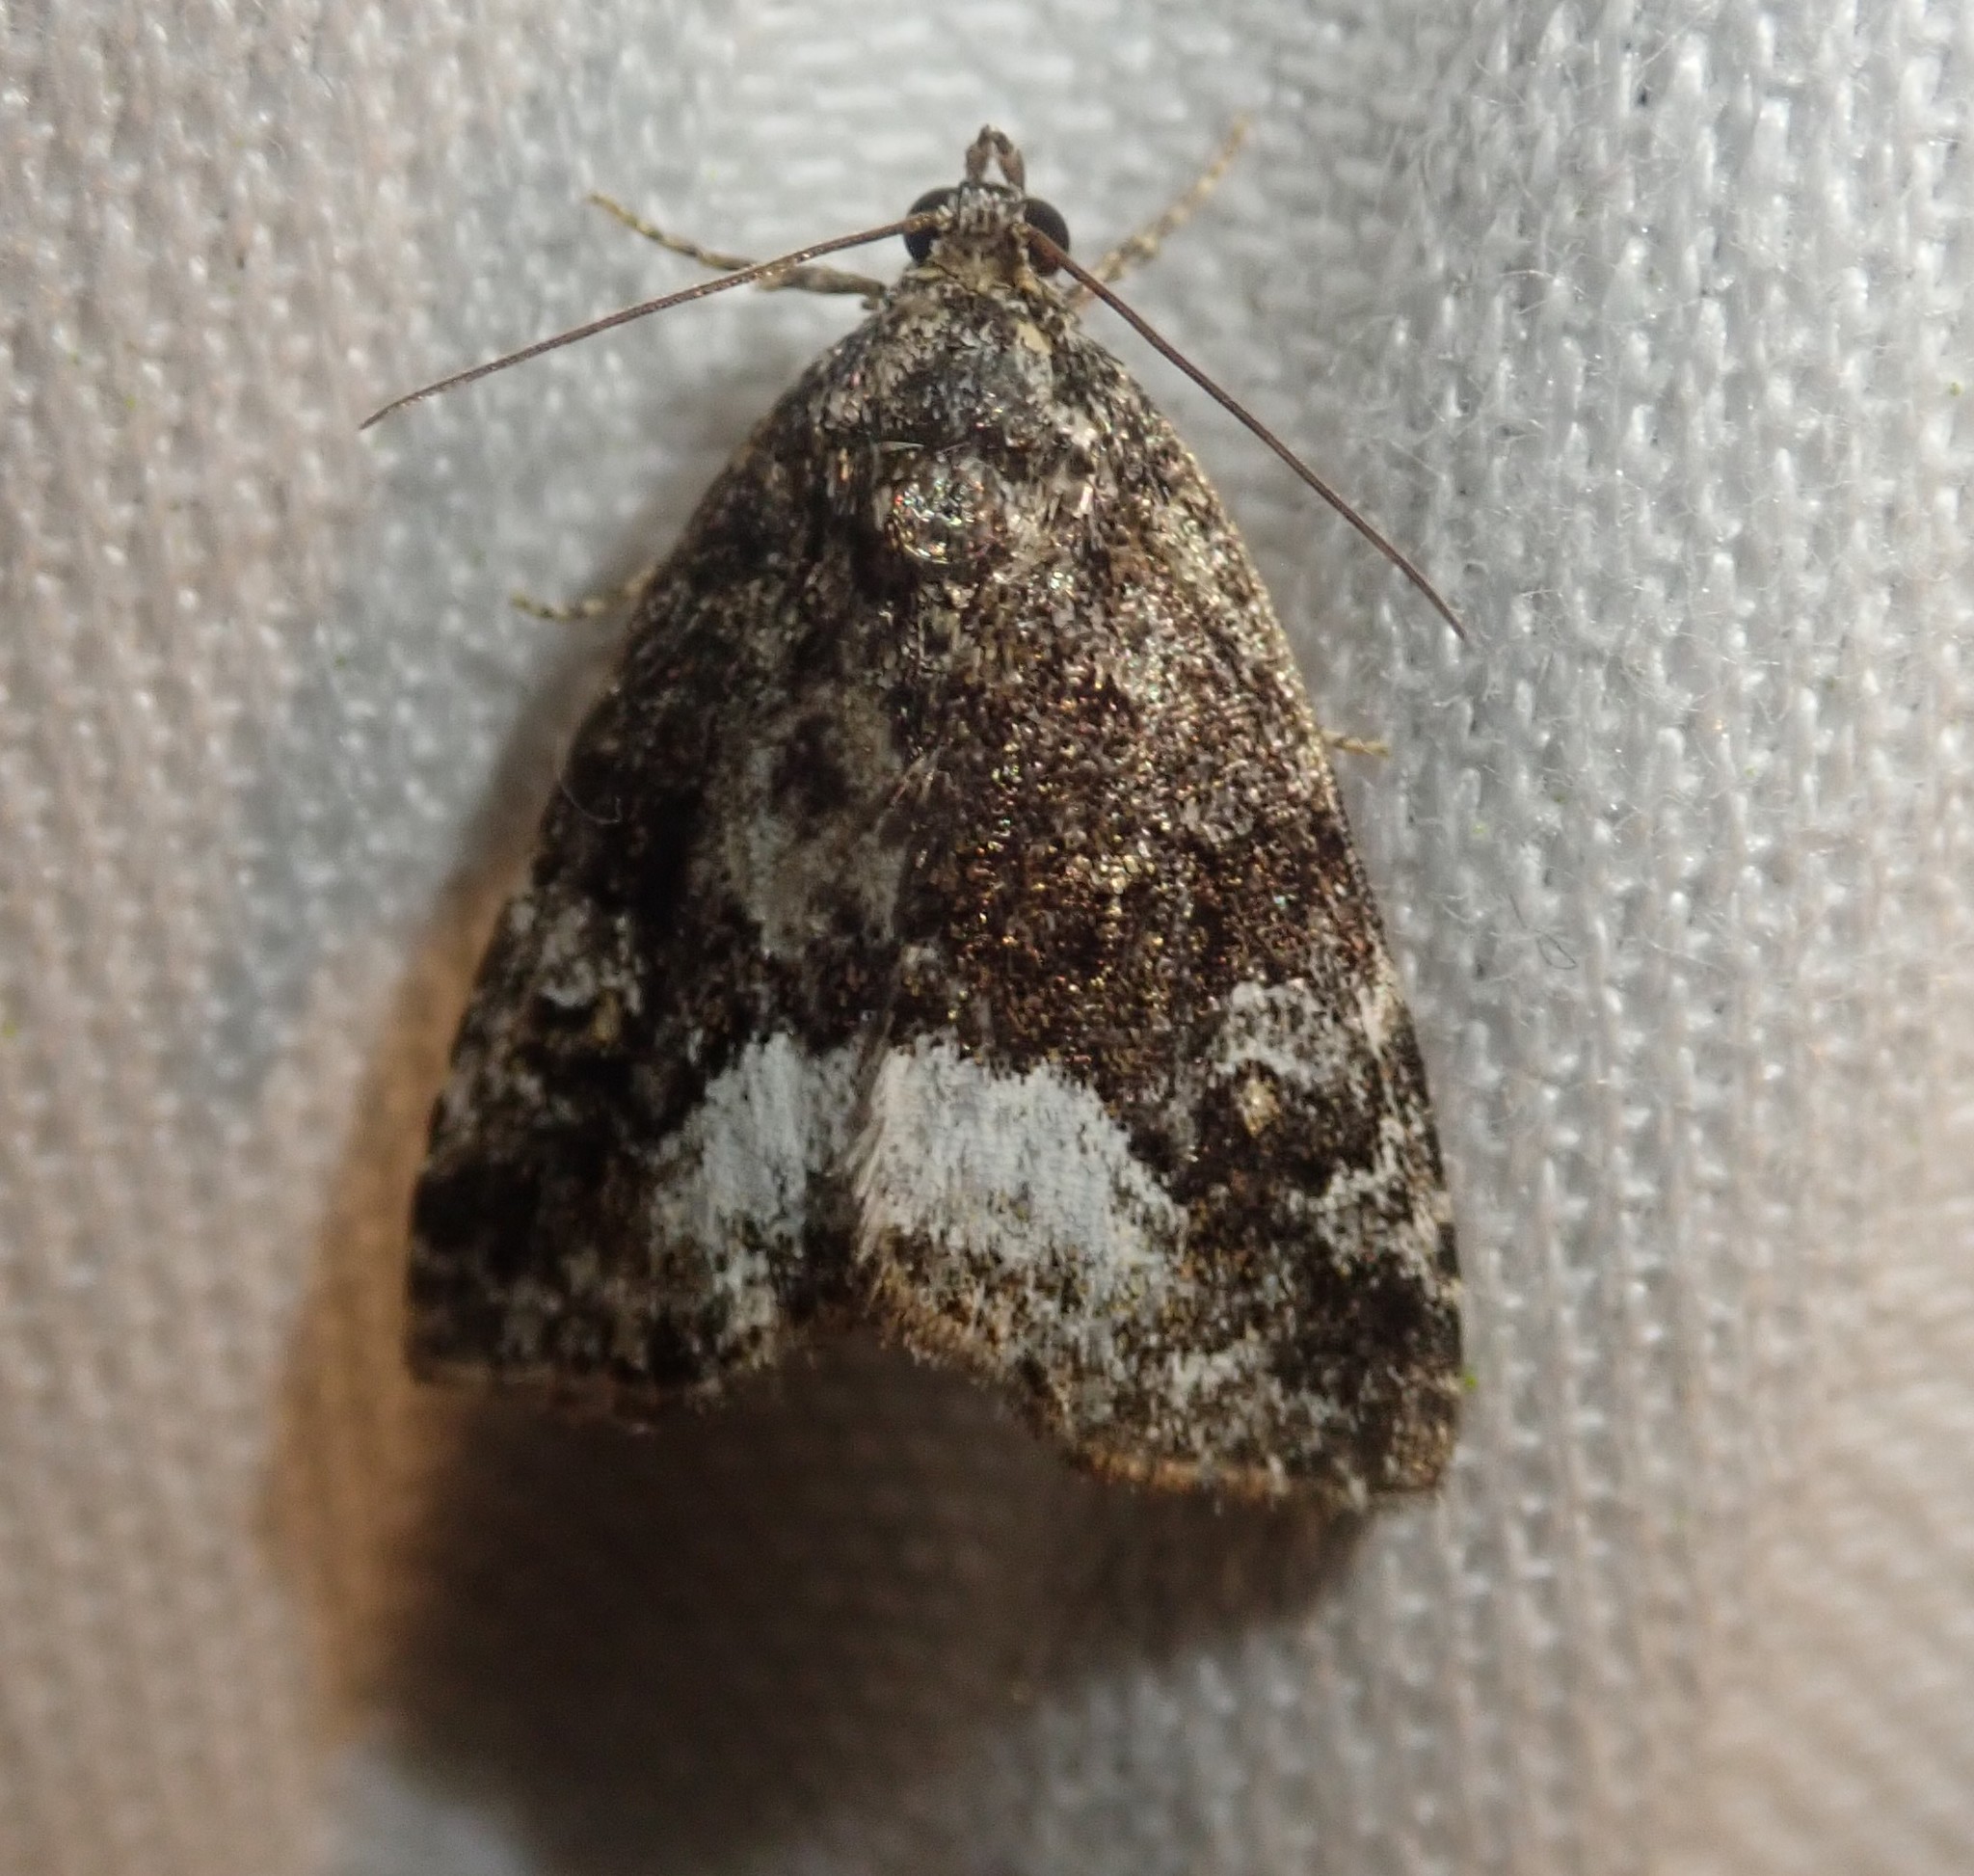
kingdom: Animalia
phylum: Arthropoda
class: Insecta
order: Lepidoptera
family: Noctuidae
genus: Deltote
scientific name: Deltote pygarga
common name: Marbled white spot
